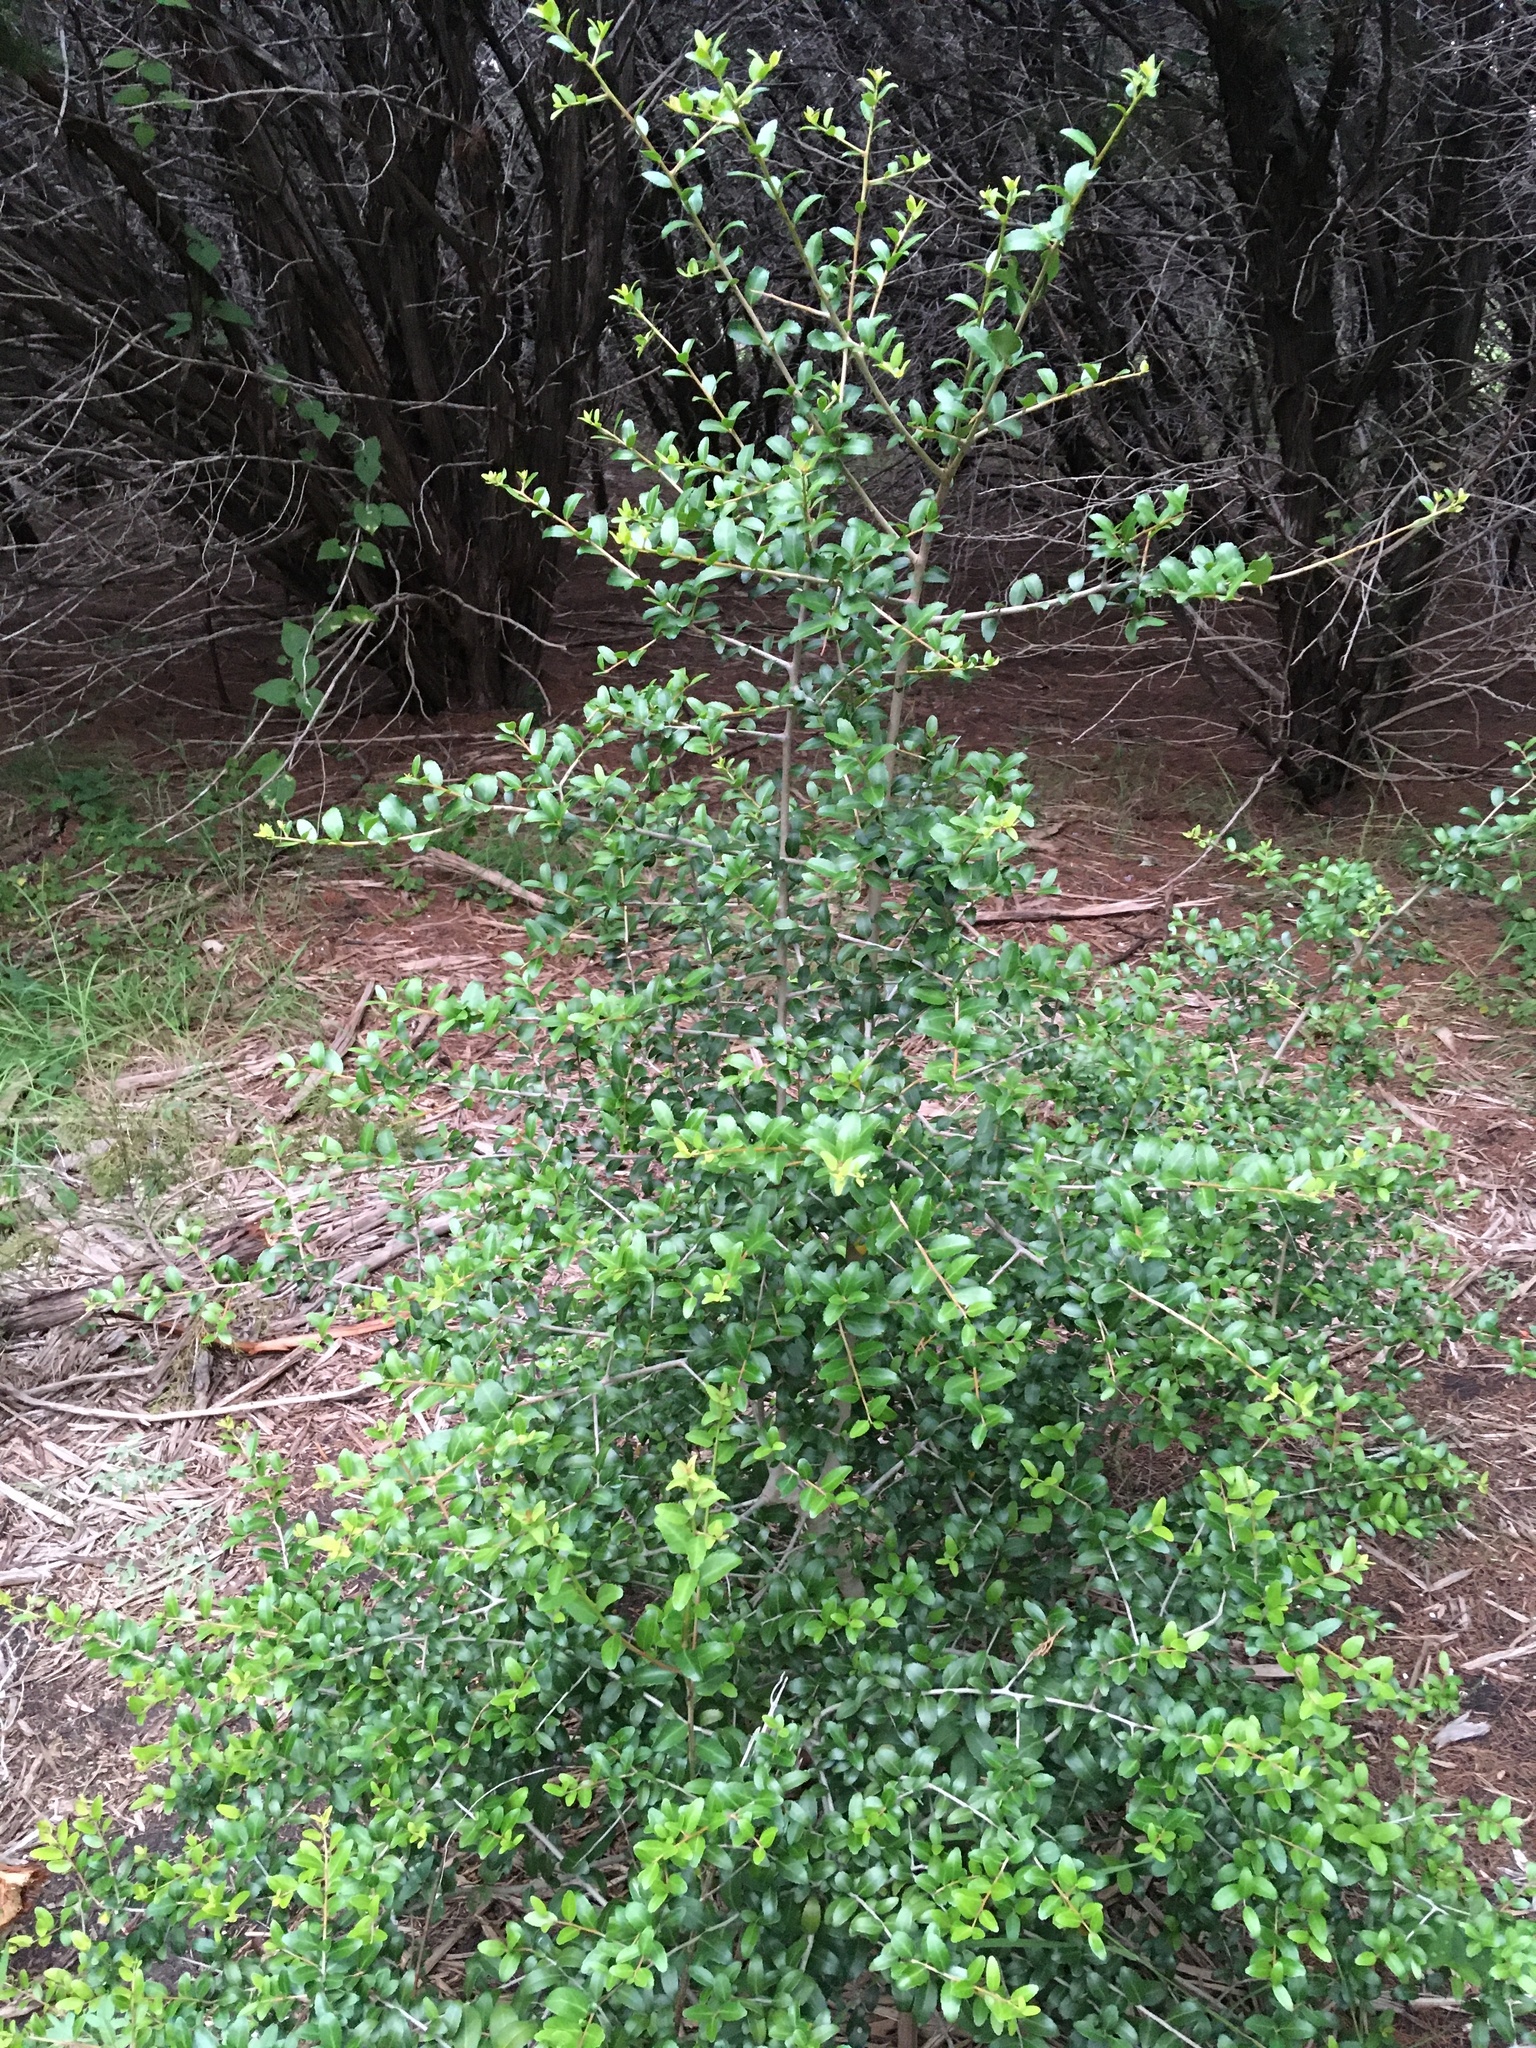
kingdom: Plantae
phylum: Tracheophyta
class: Magnoliopsida
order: Aquifoliales
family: Aquifoliaceae
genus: Ilex
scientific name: Ilex vomitoria
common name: Yaupon holly
